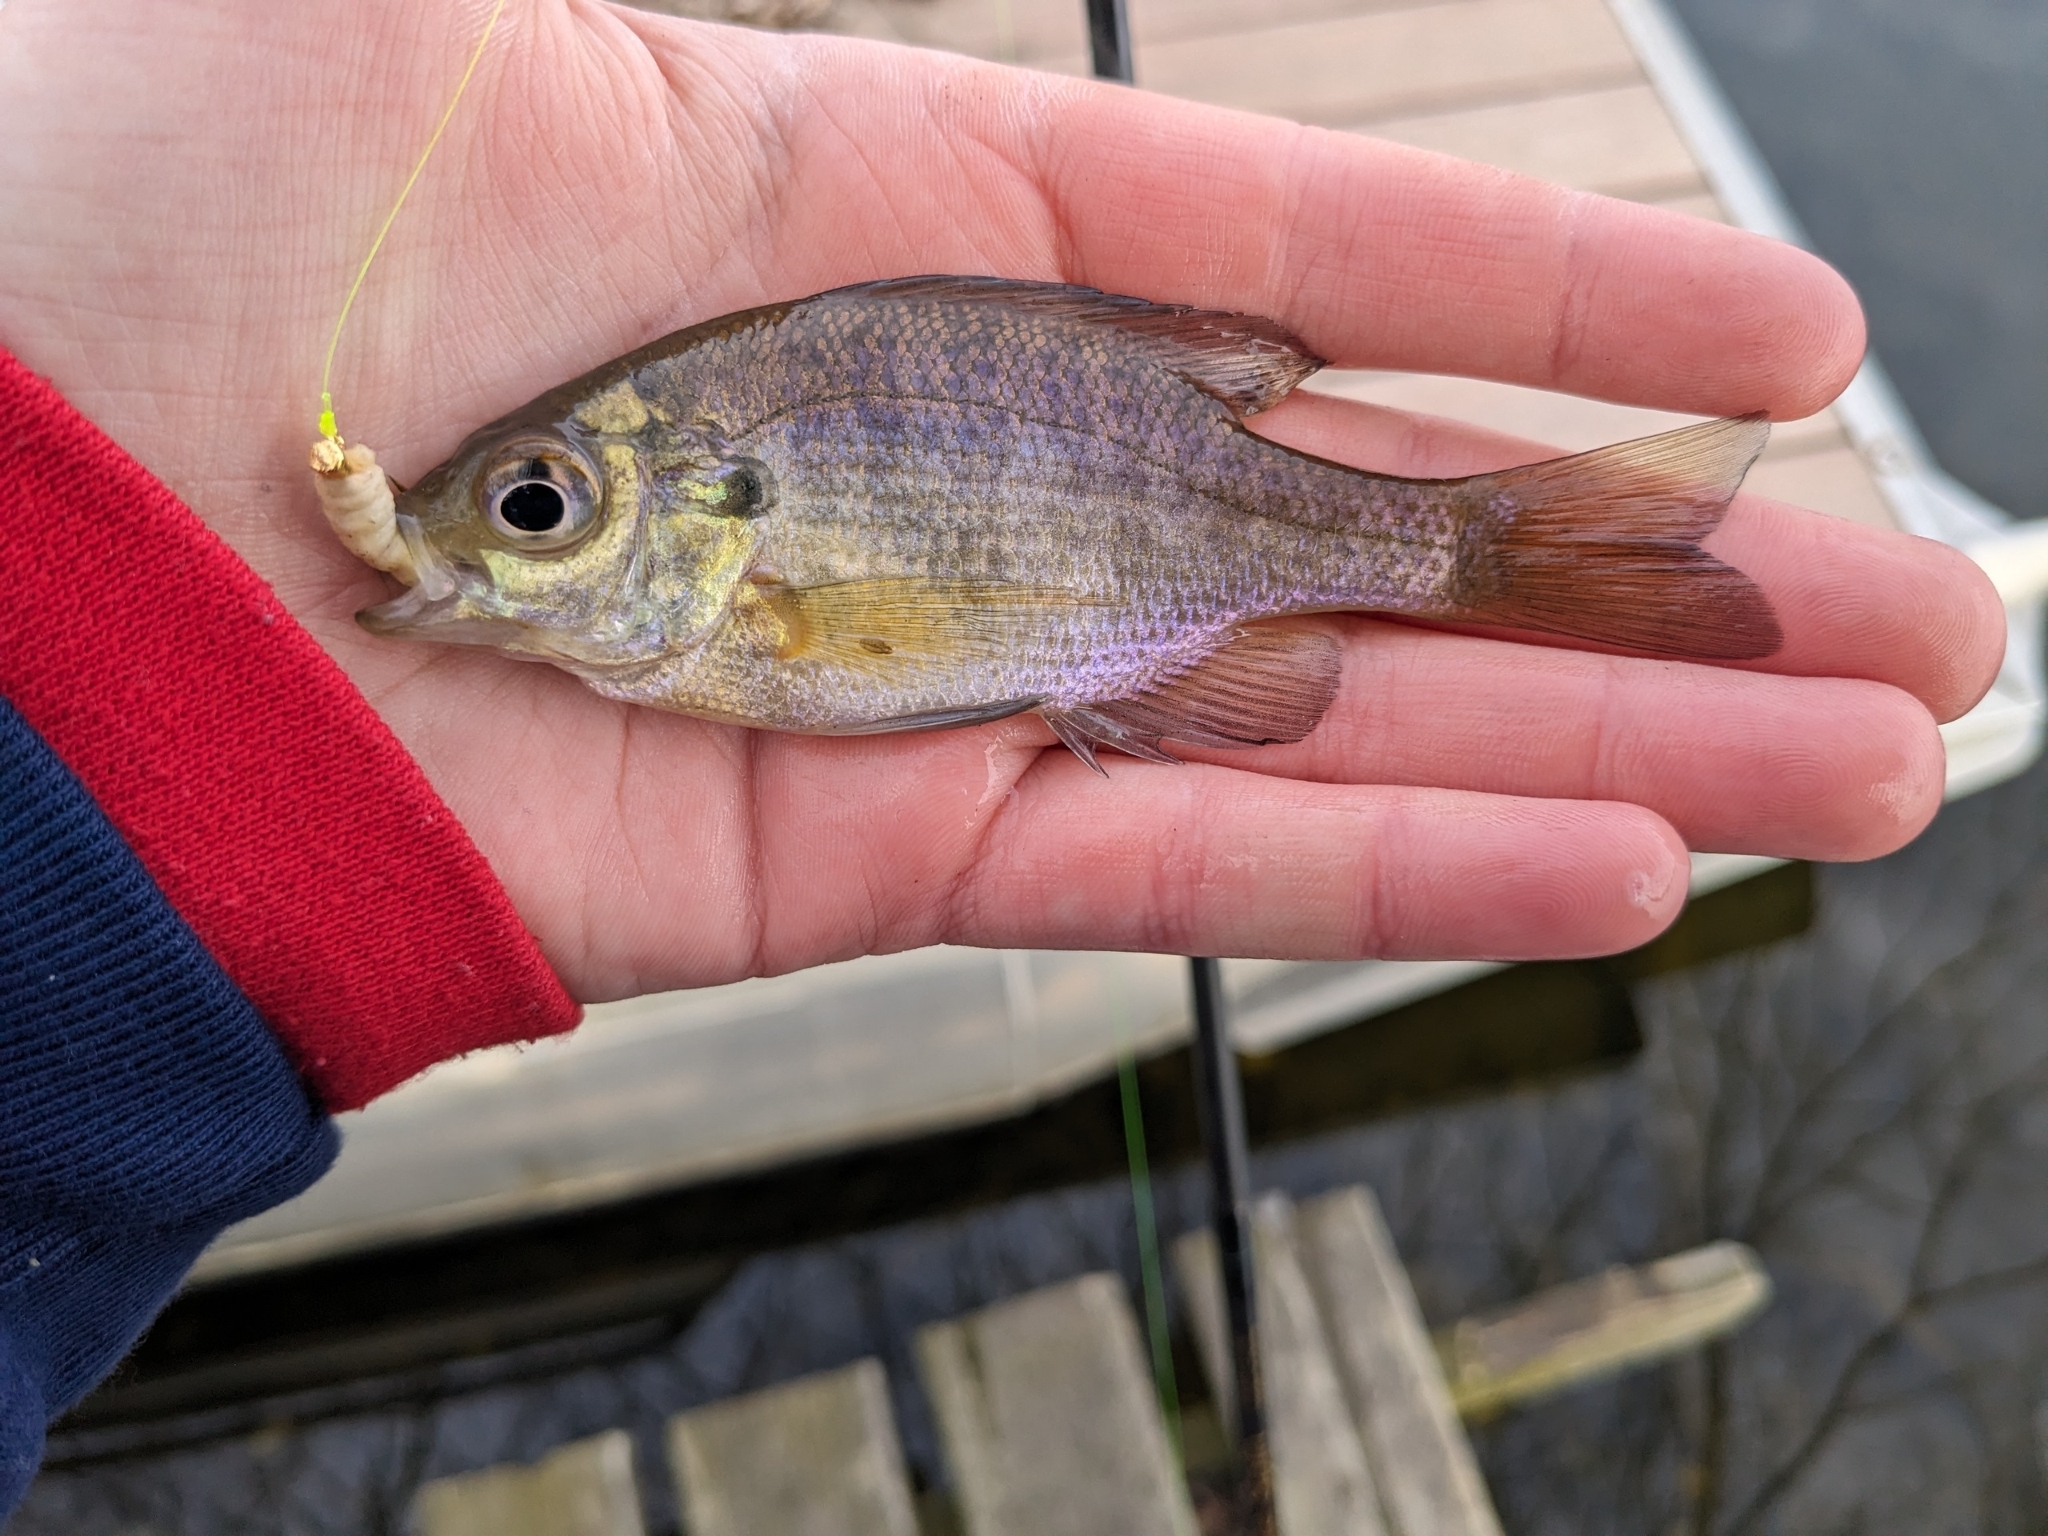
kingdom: Animalia
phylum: Chordata
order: Perciformes
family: Centrarchidae
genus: Lepomis
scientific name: Lepomis macrochirus
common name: Bluegill
